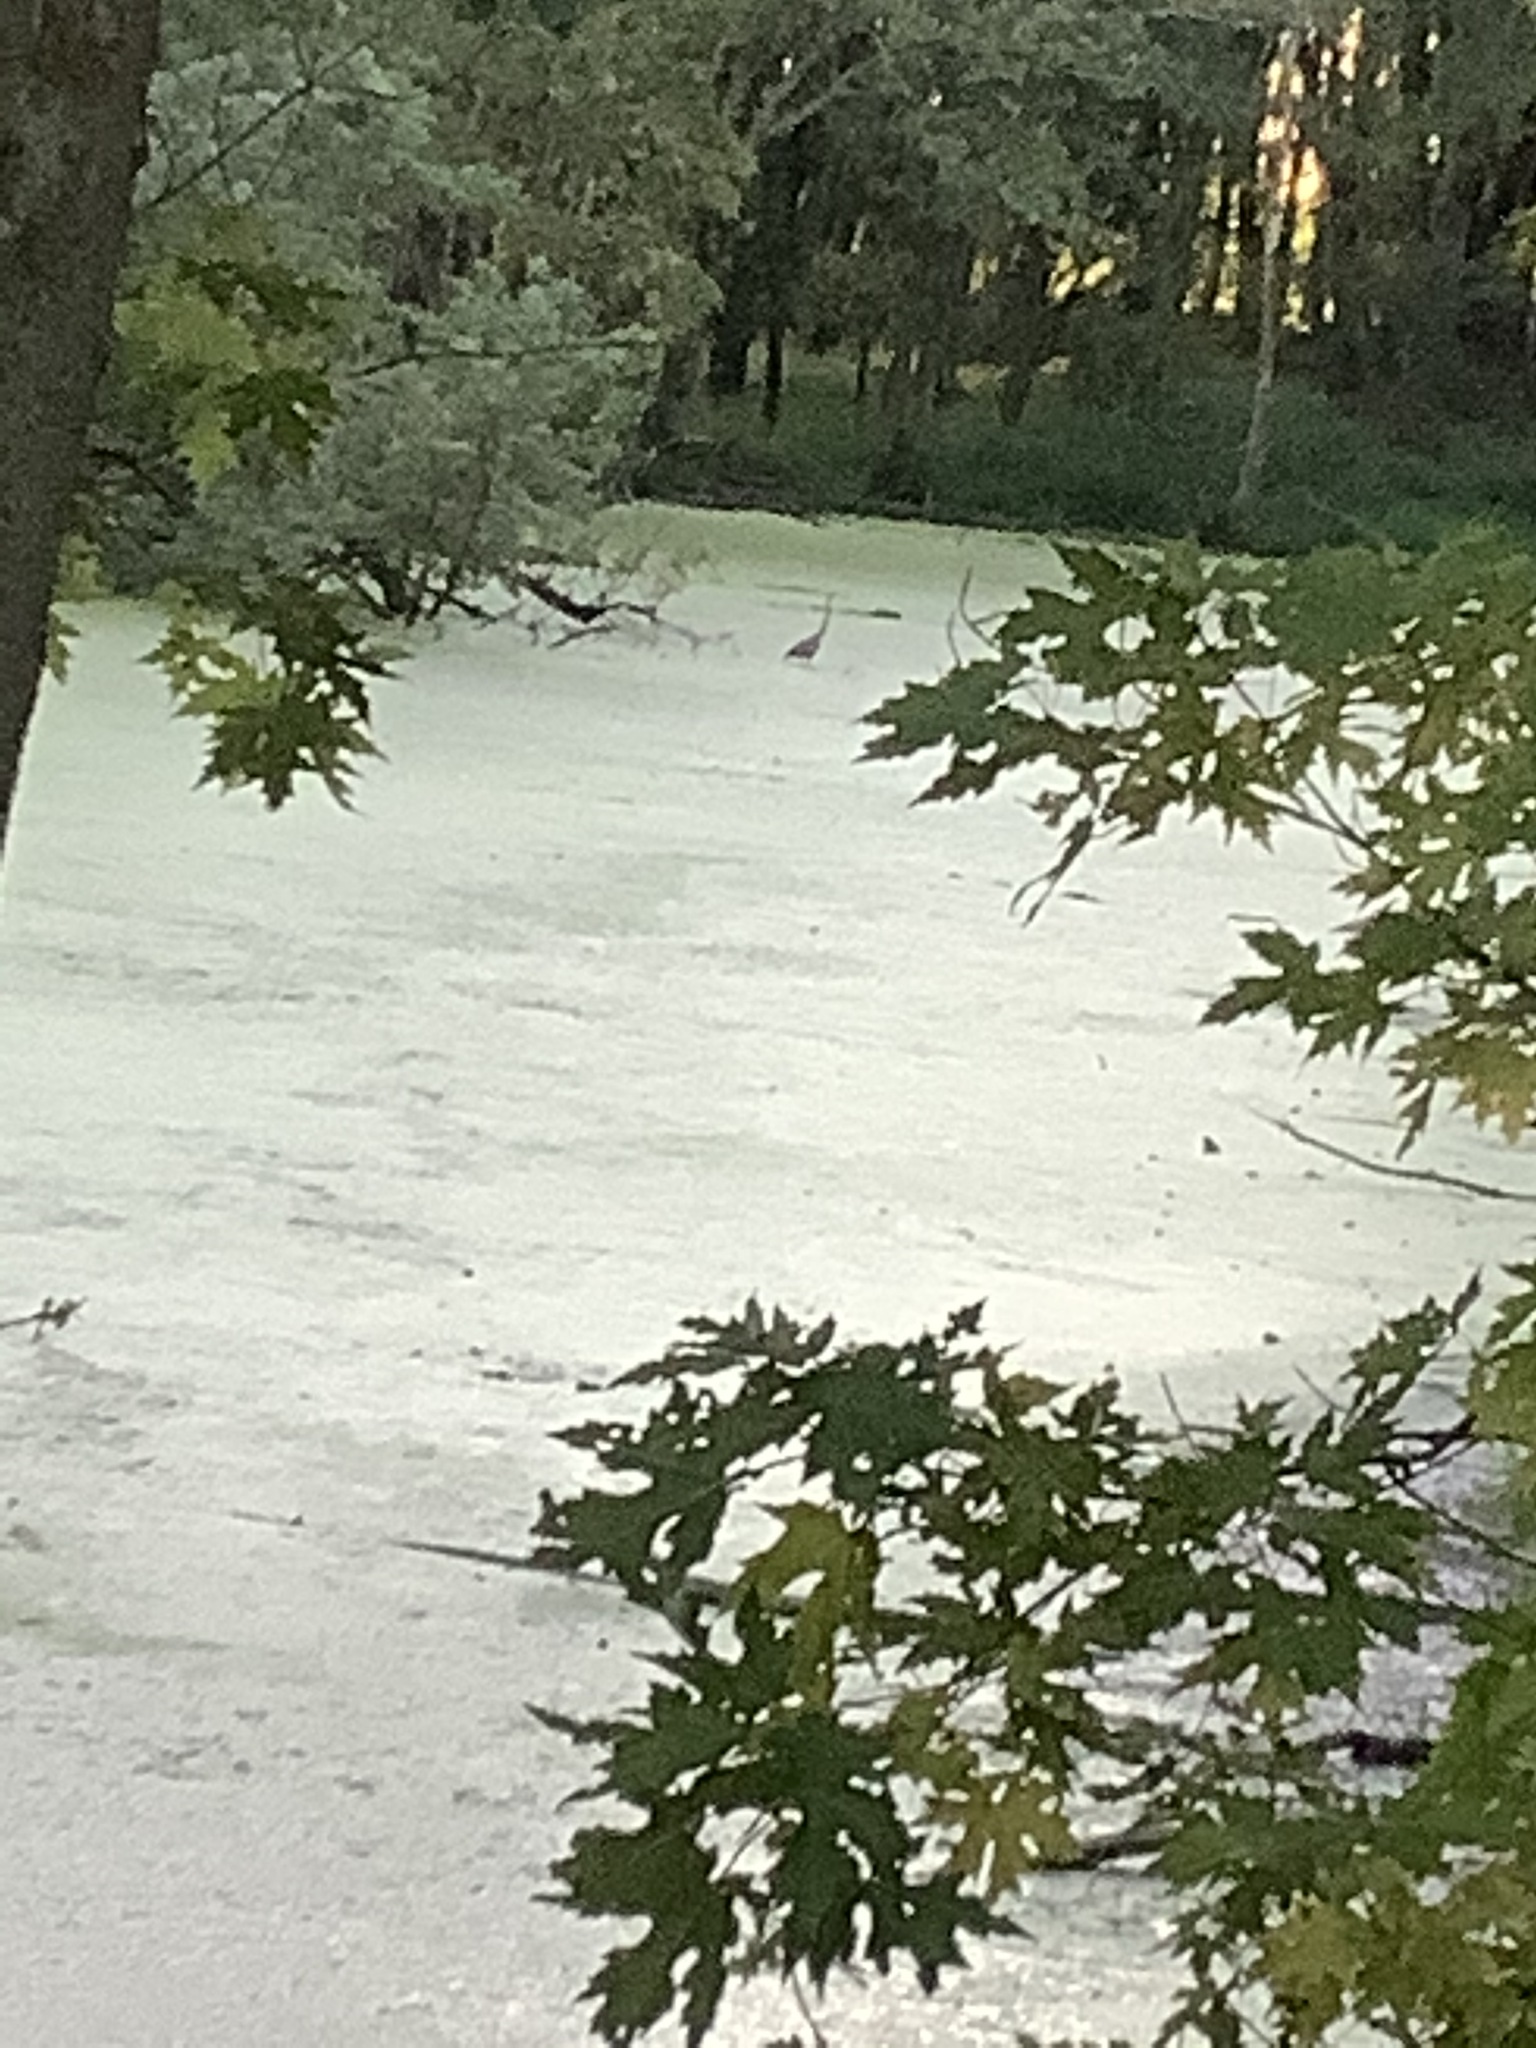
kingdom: Animalia
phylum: Chordata
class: Aves
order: Pelecaniformes
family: Ardeidae
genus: Ardea
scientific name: Ardea herodias
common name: Great blue heron
